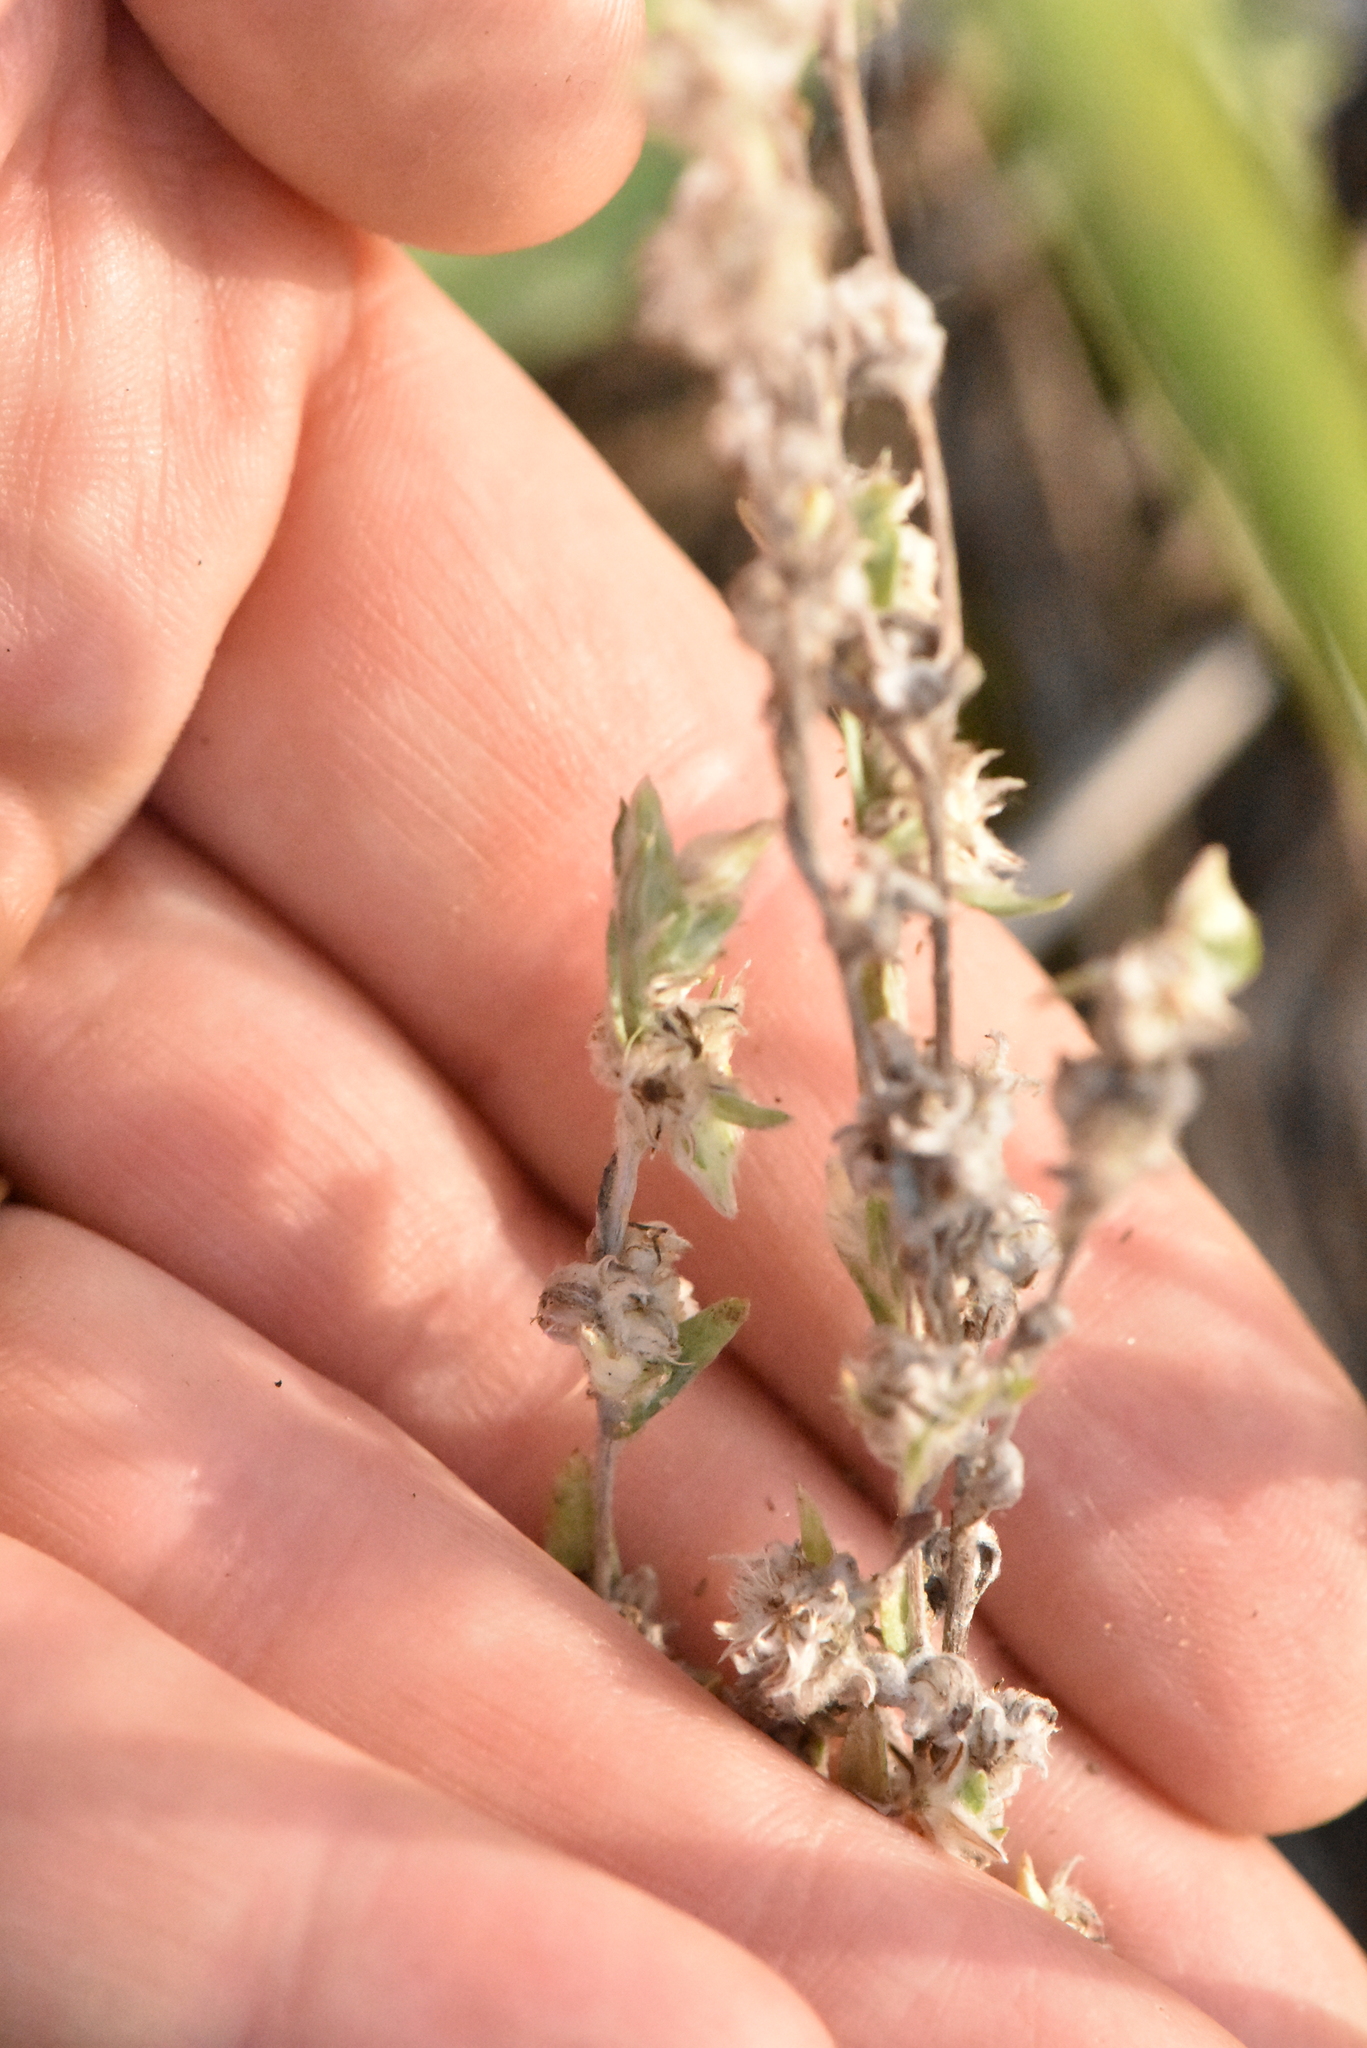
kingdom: Plantae
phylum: Tracheophyta
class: Magnoliopsida
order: Asterales
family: Asteraceae
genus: Filago
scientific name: Filago arvensis
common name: Field cudweed
